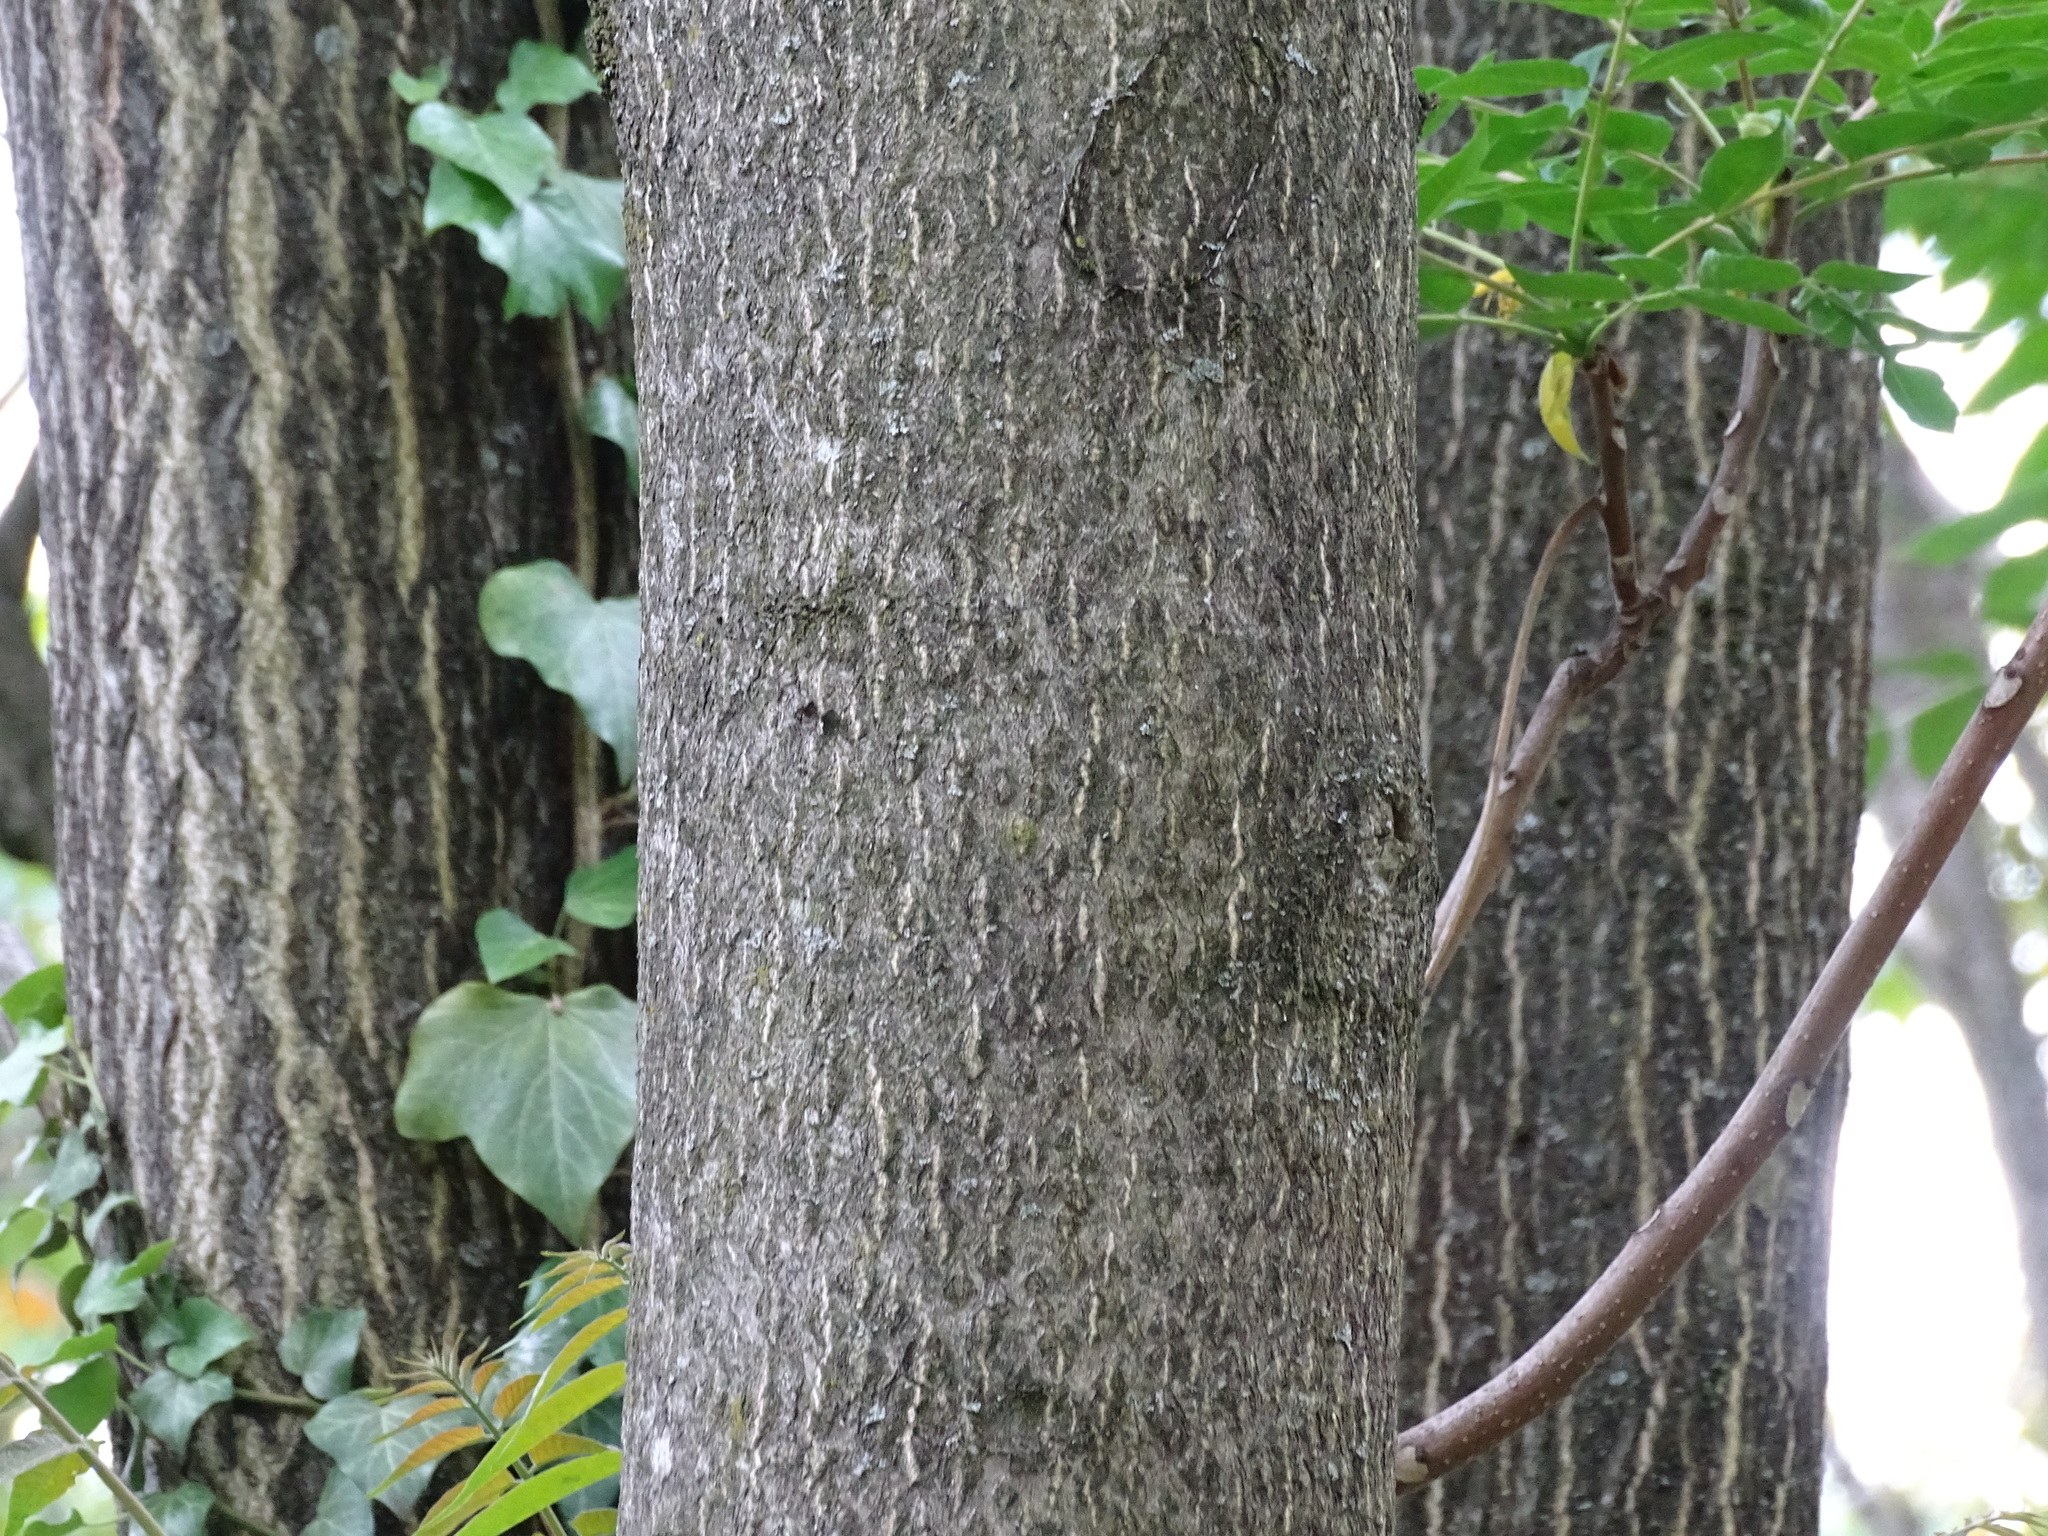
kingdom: Plantae
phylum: Tracheophyta
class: Magnoliopsida
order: Sapindales
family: Simaroubaceae
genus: Ailanthus
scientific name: Ailanthus altissima
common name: Tree-of-heaven
